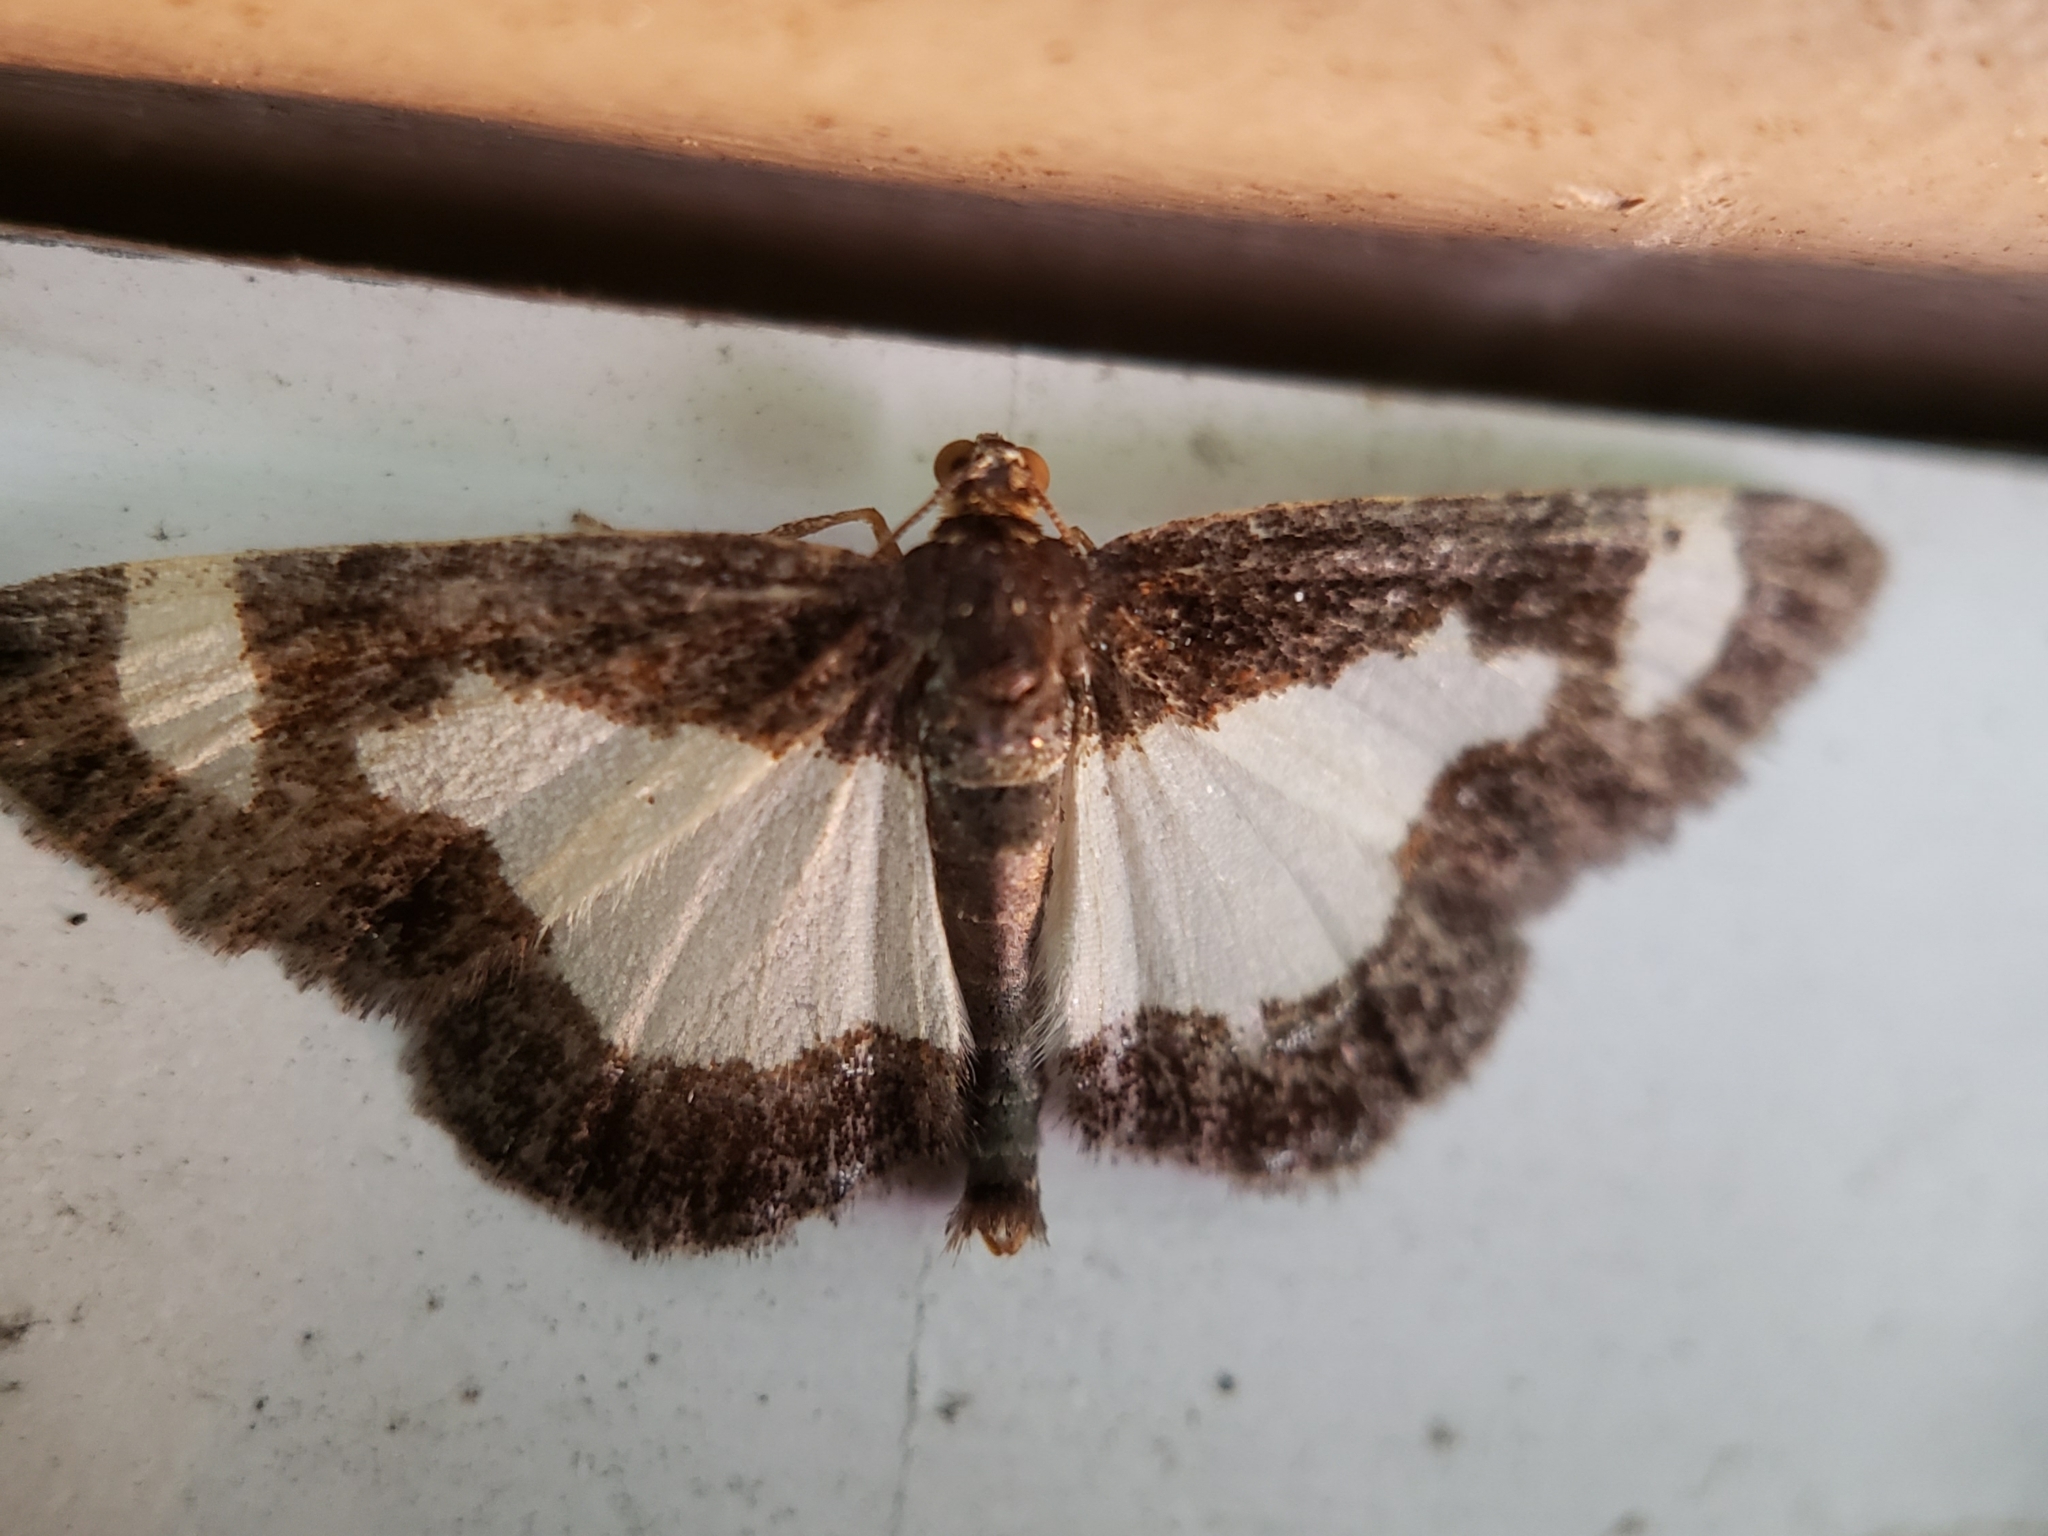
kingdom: Animalia
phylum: Arthropoda
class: Insecta
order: Lepidoptera
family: Geometridae
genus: Heliomata
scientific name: Heliomata cycladata
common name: Common spring moth
